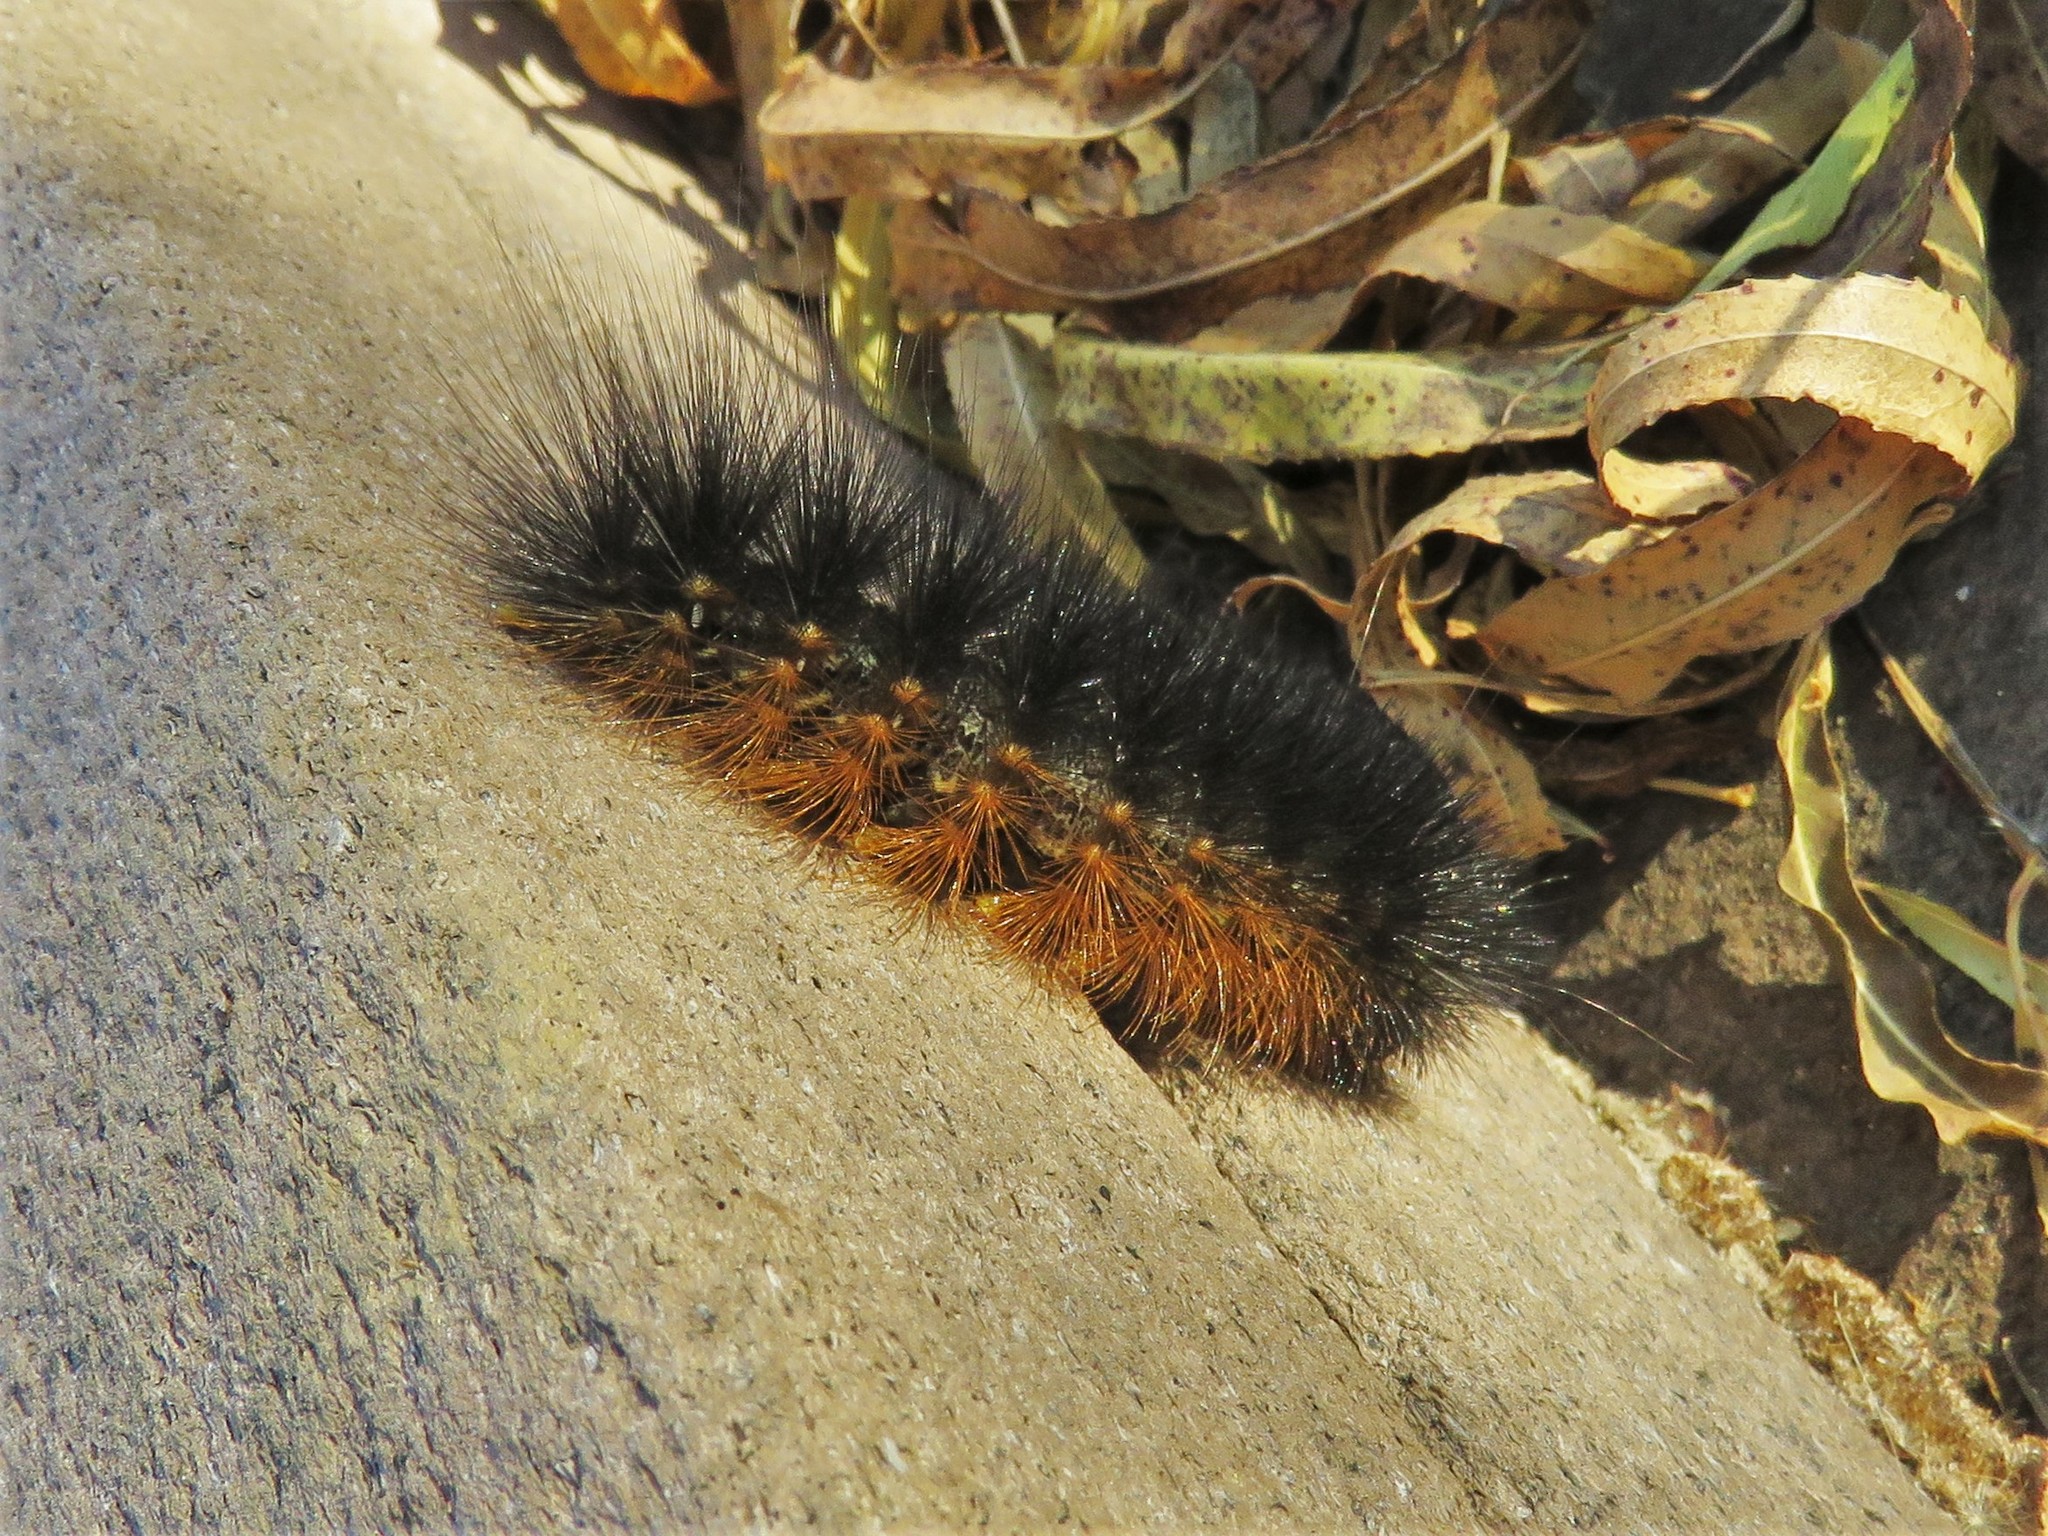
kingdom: Animalia
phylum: Arthropoda
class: Insecta
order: Lepidoptera
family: Erebidae
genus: Estigmene
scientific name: Estigmene acrea
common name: Salt marsh moth
